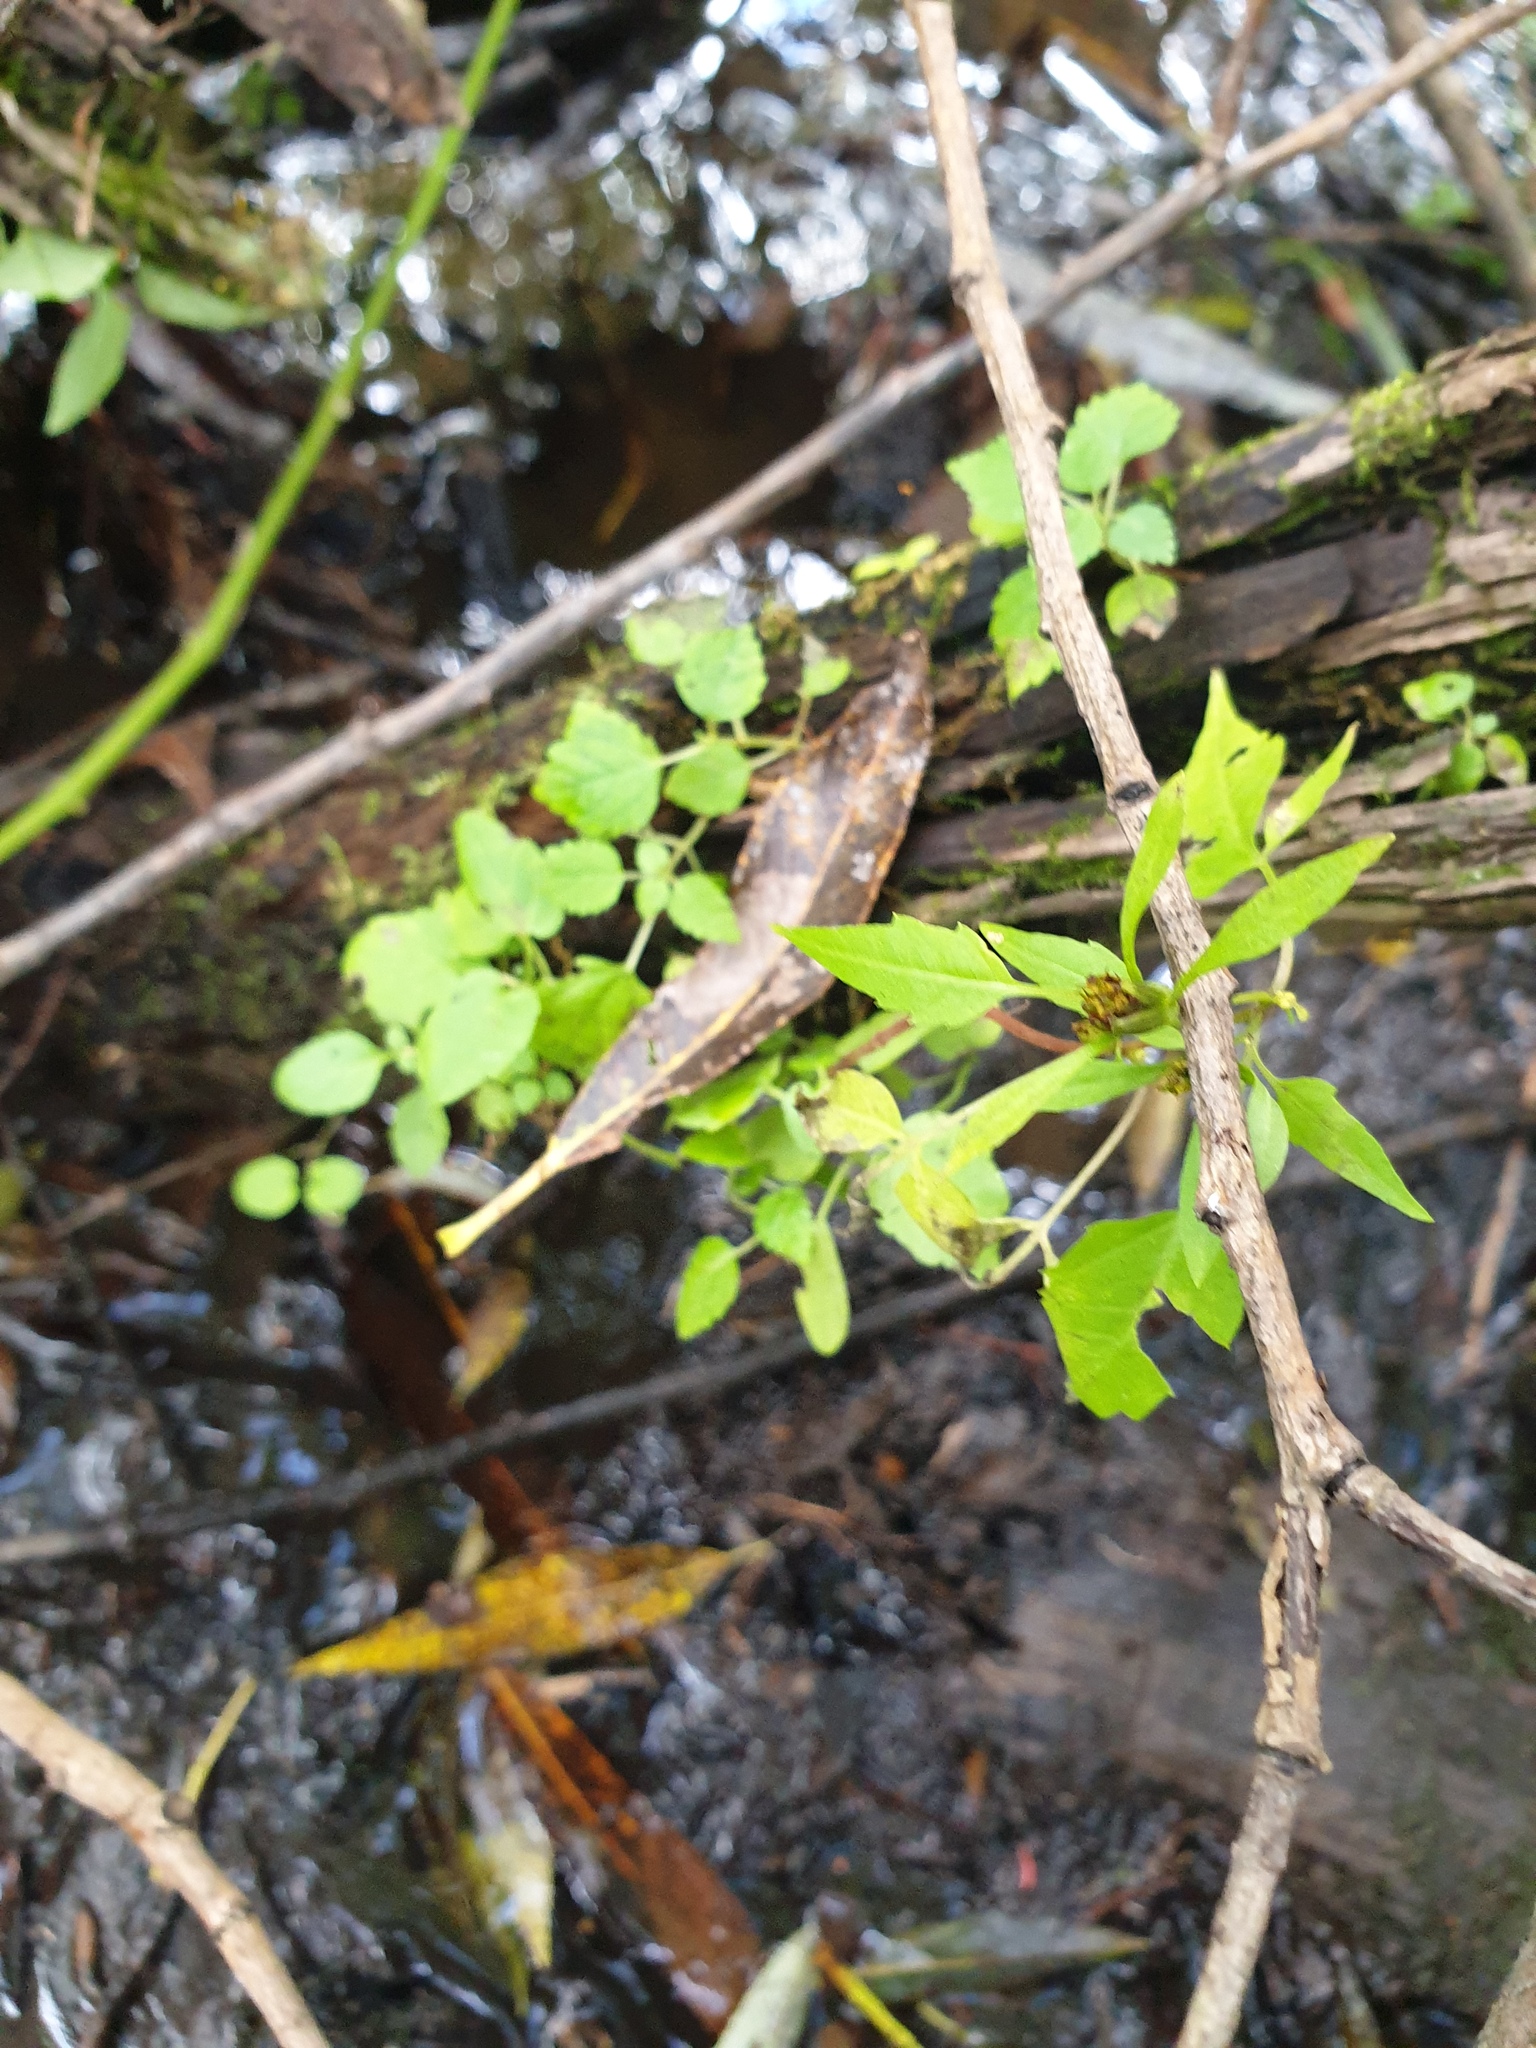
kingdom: Plantae
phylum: Tracheophyta
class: Magnoliopsida
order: Asterales
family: Asteraceae
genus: Bidens
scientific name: Bidens discoidea
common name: Discoide beggarticks
